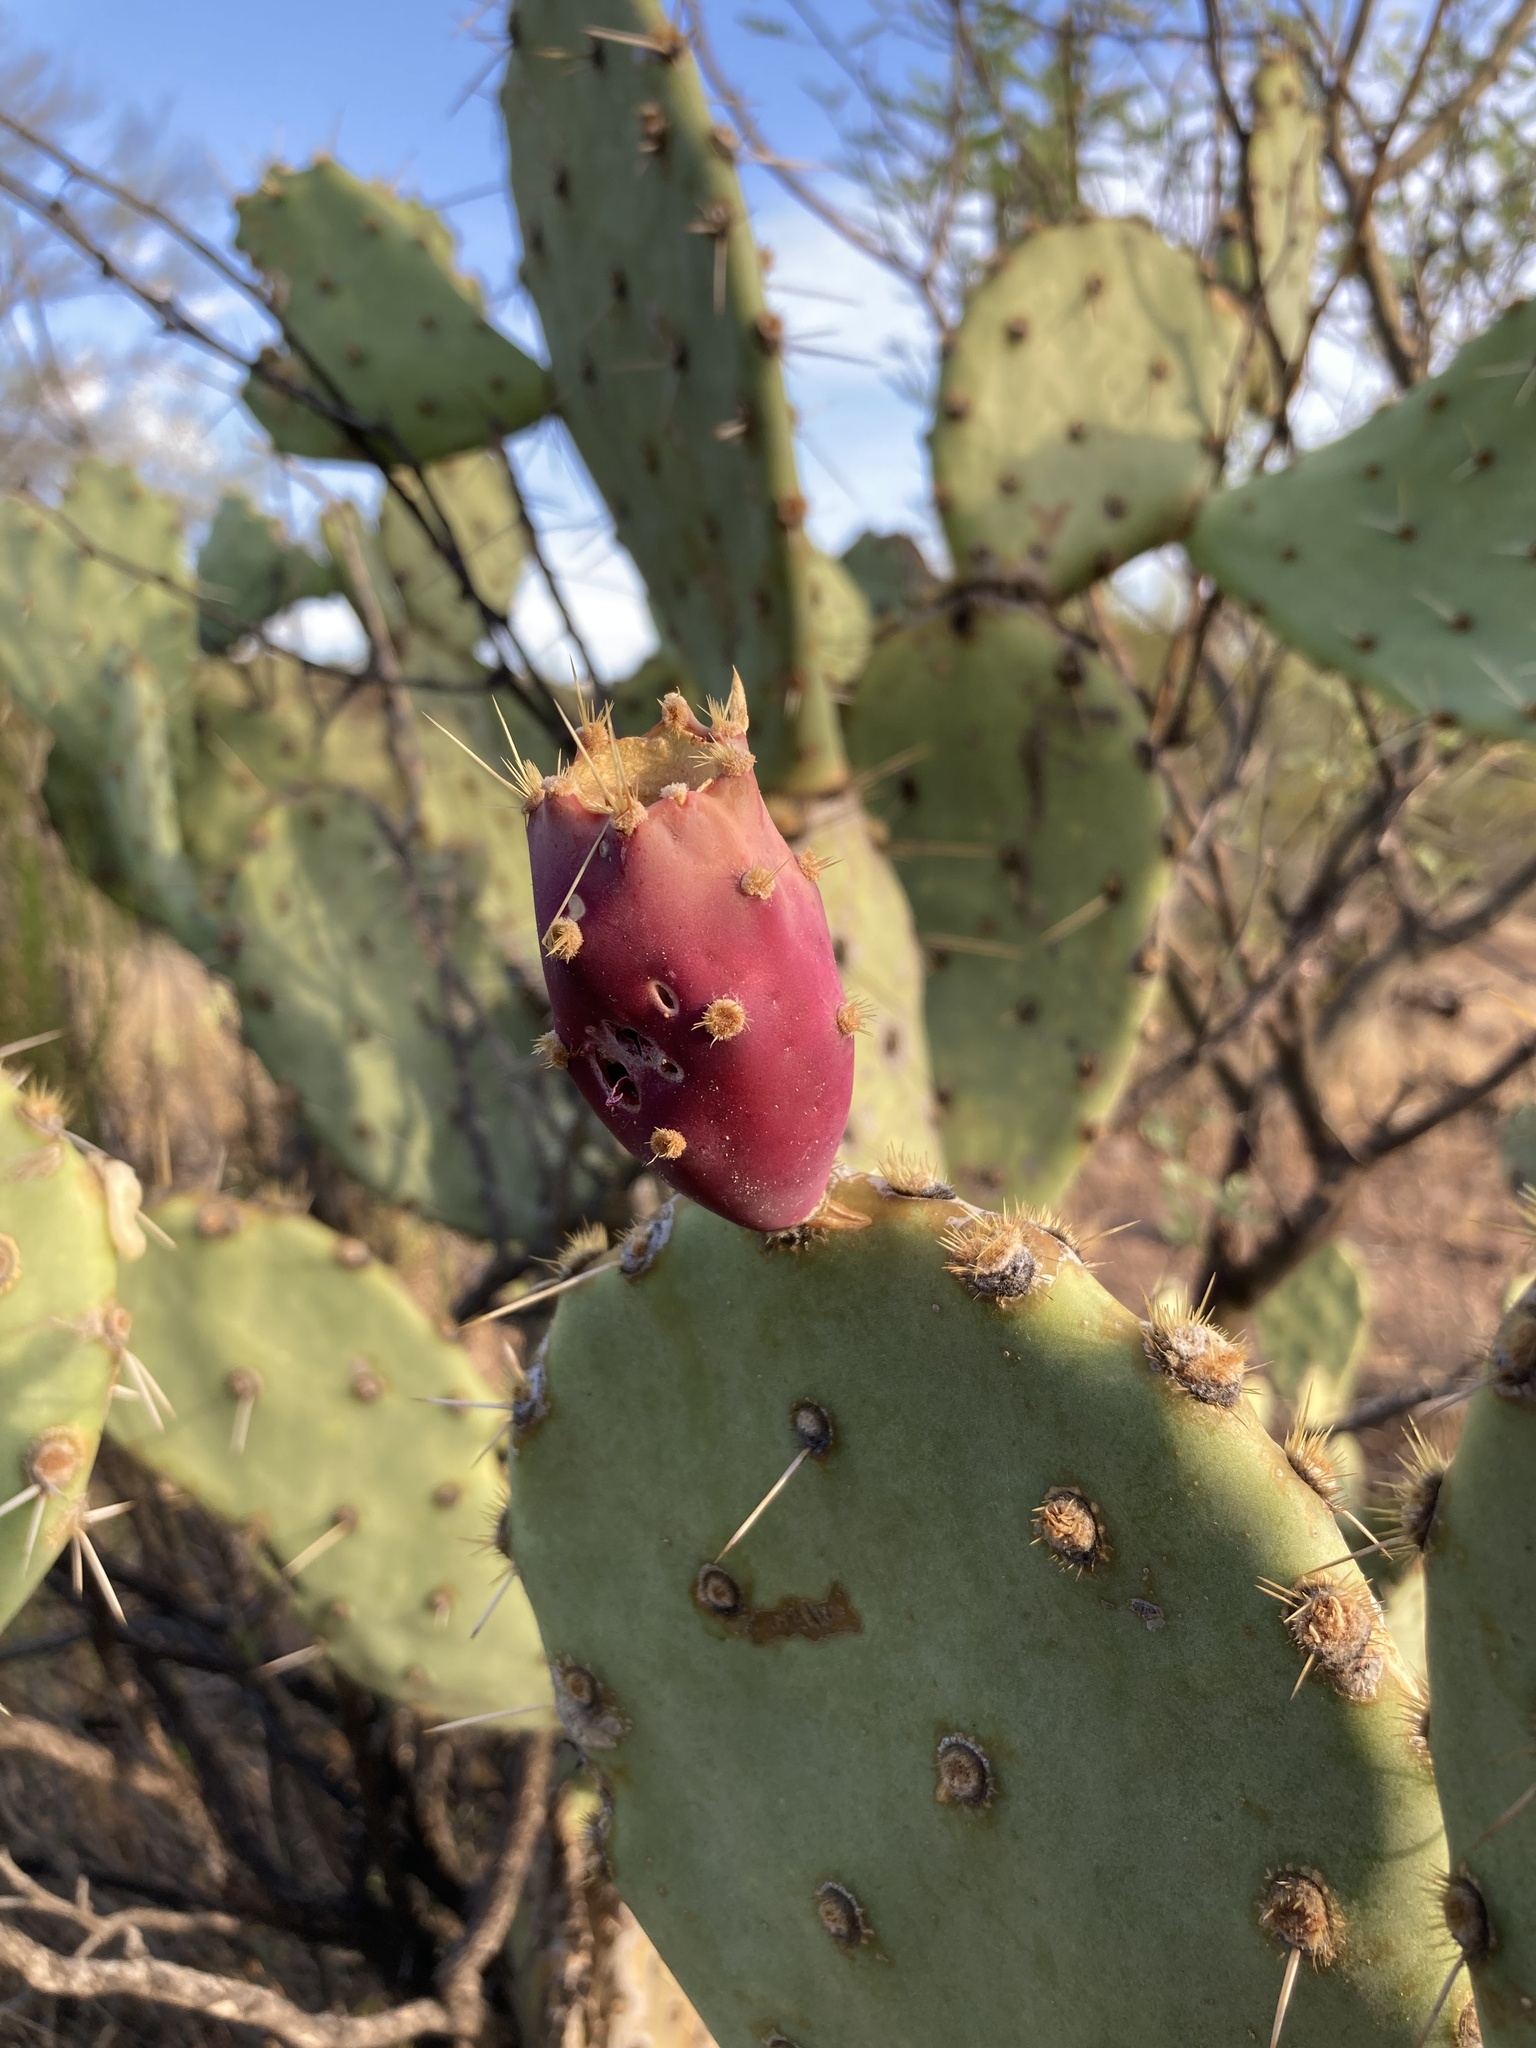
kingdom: Plantae
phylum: Tracheophyta
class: Magnoliopsida
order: Caryophyllales
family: Cactaceae
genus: Opuntia
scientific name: Opuntia engelmannii
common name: Cactus-apple
